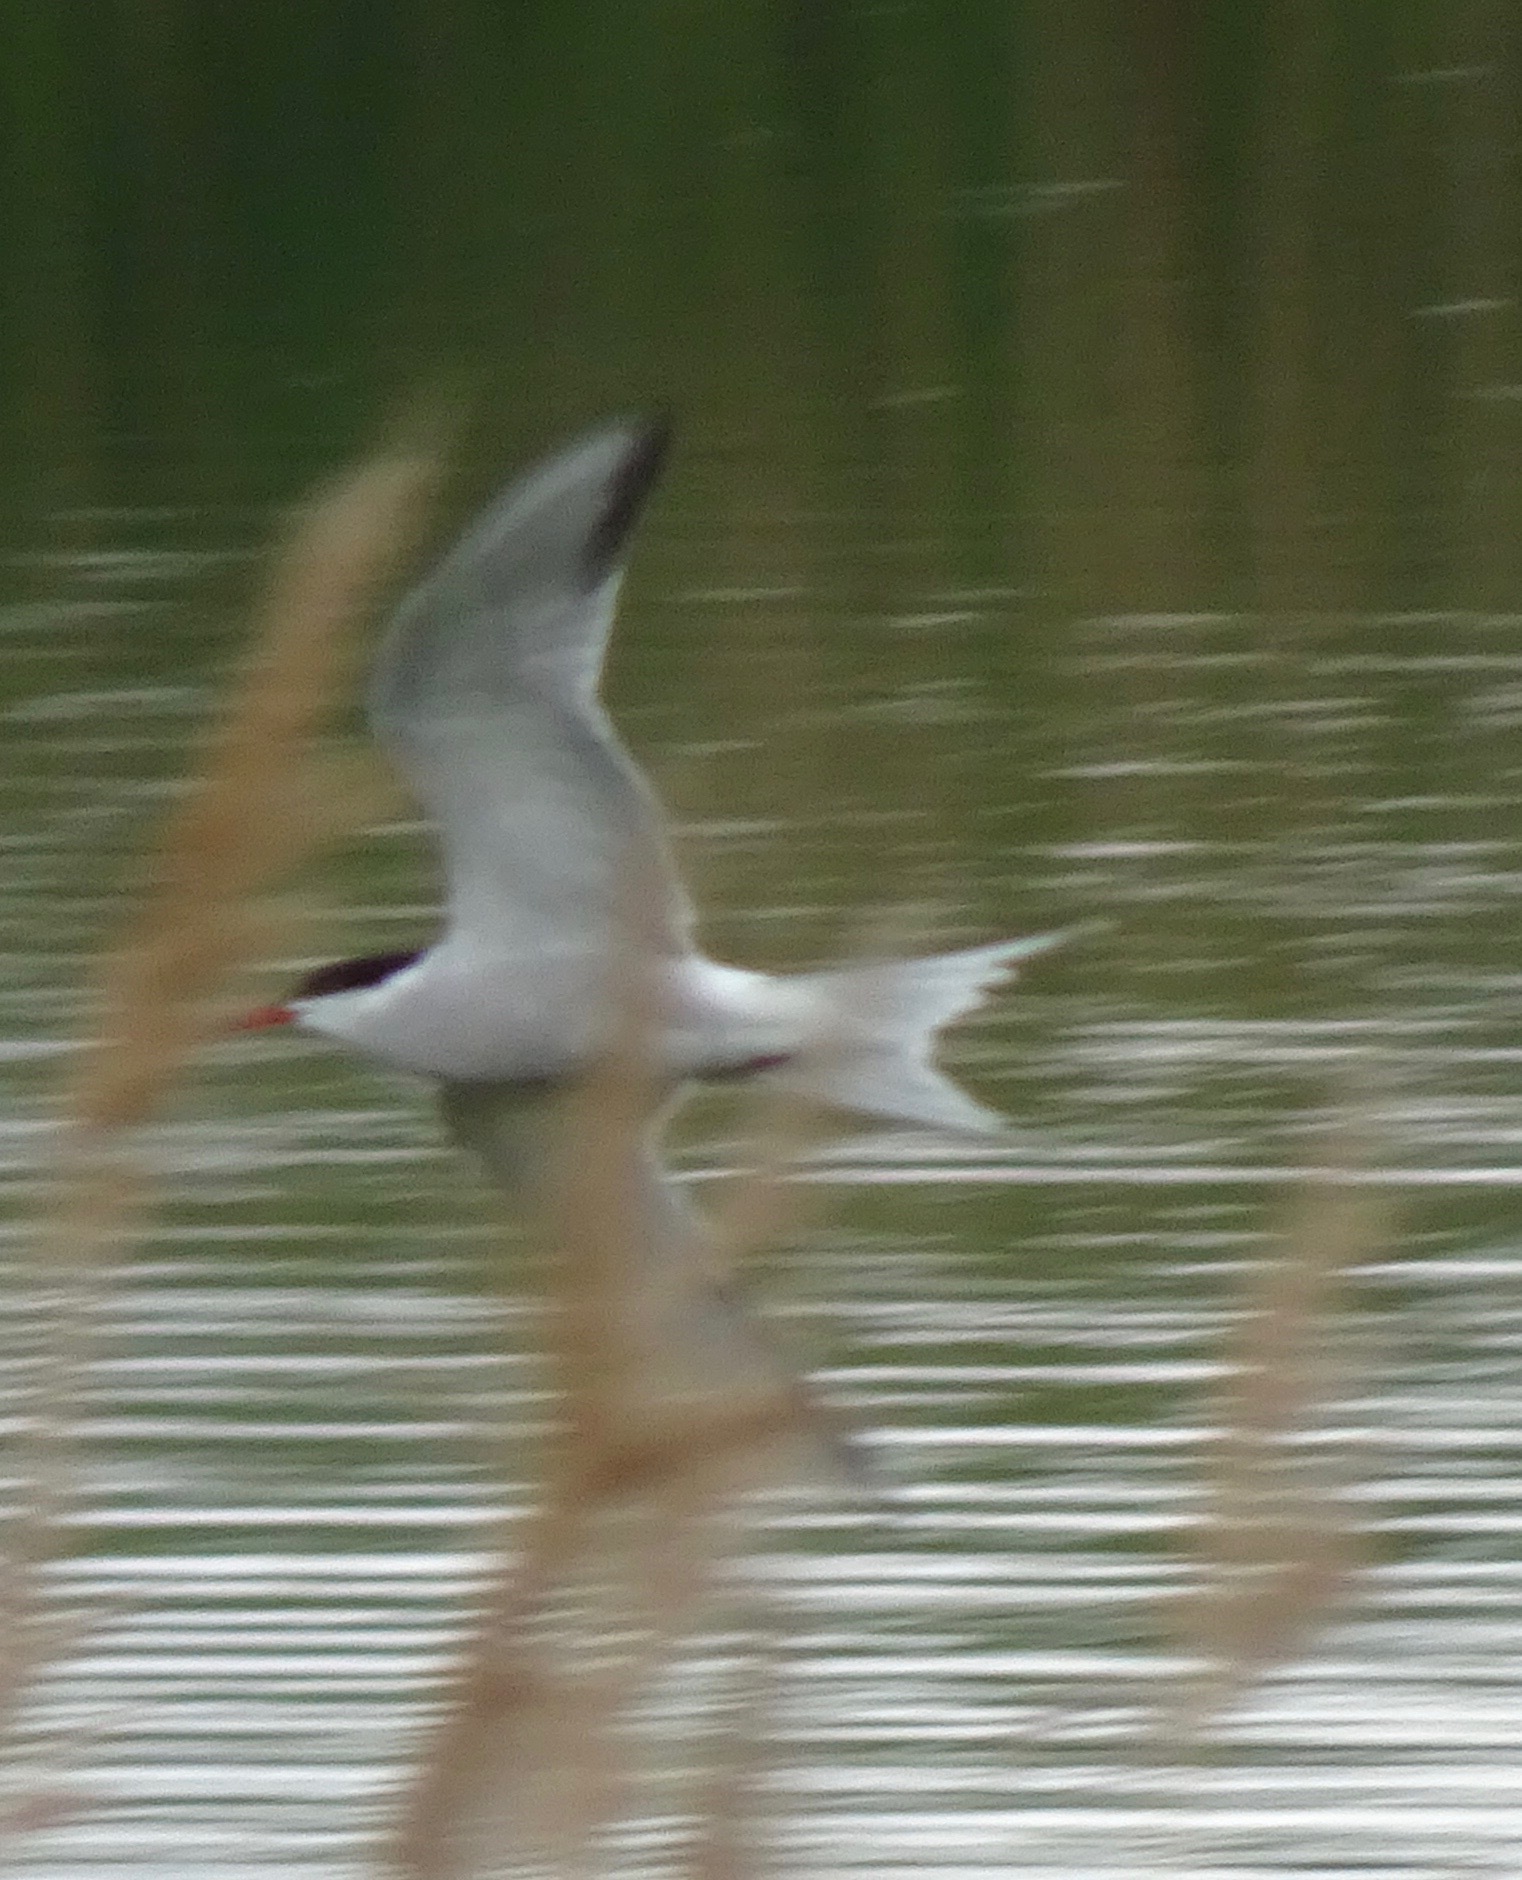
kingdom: Animalia
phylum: Chordata
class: Aves
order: Charadriiformes
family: Laridae
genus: Sterna
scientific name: Sterna hirundo
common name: Common tern
